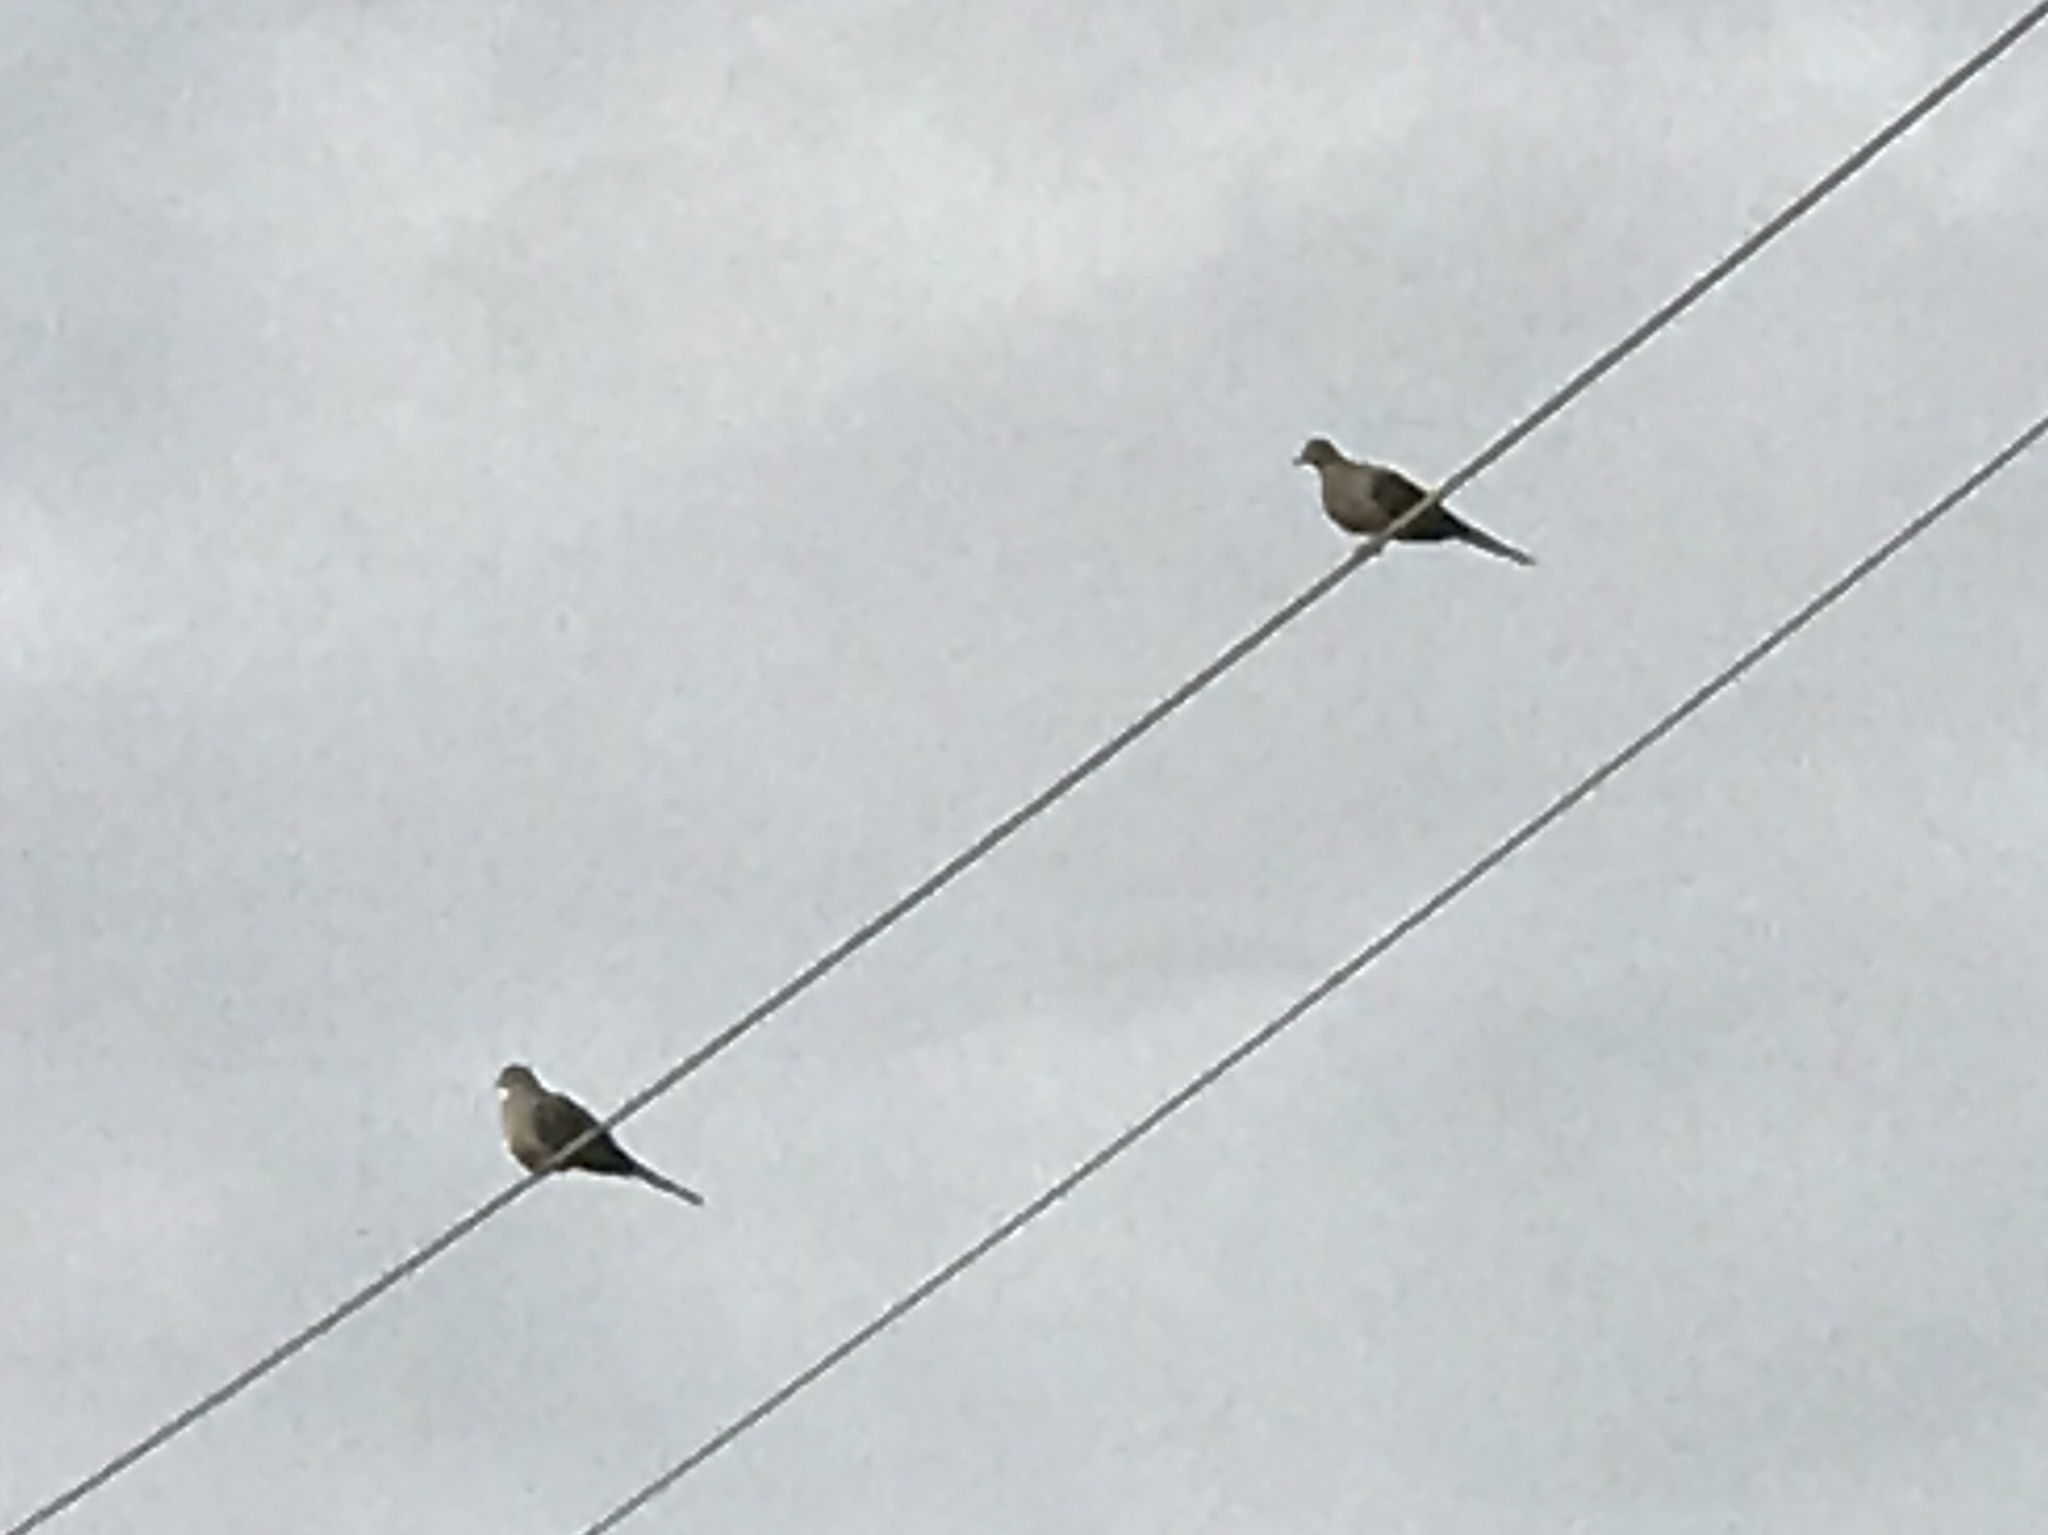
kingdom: Animalia
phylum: Chordata
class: Aves
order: Columbiformes
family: Columbidae
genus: Zenaida
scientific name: Zenaida macroura
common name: Mourning dove
